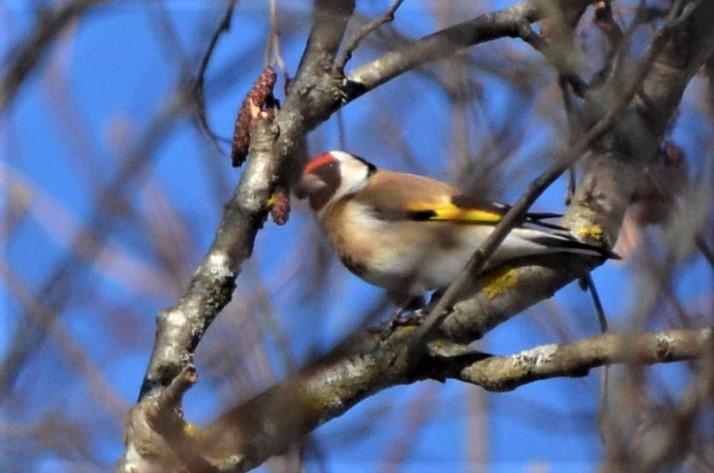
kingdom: Animalia
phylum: Chordata
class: Aves
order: Passeriformes
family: Fringillidae
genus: Carduelis
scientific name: Carduelis carduelis
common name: European goldfinch
